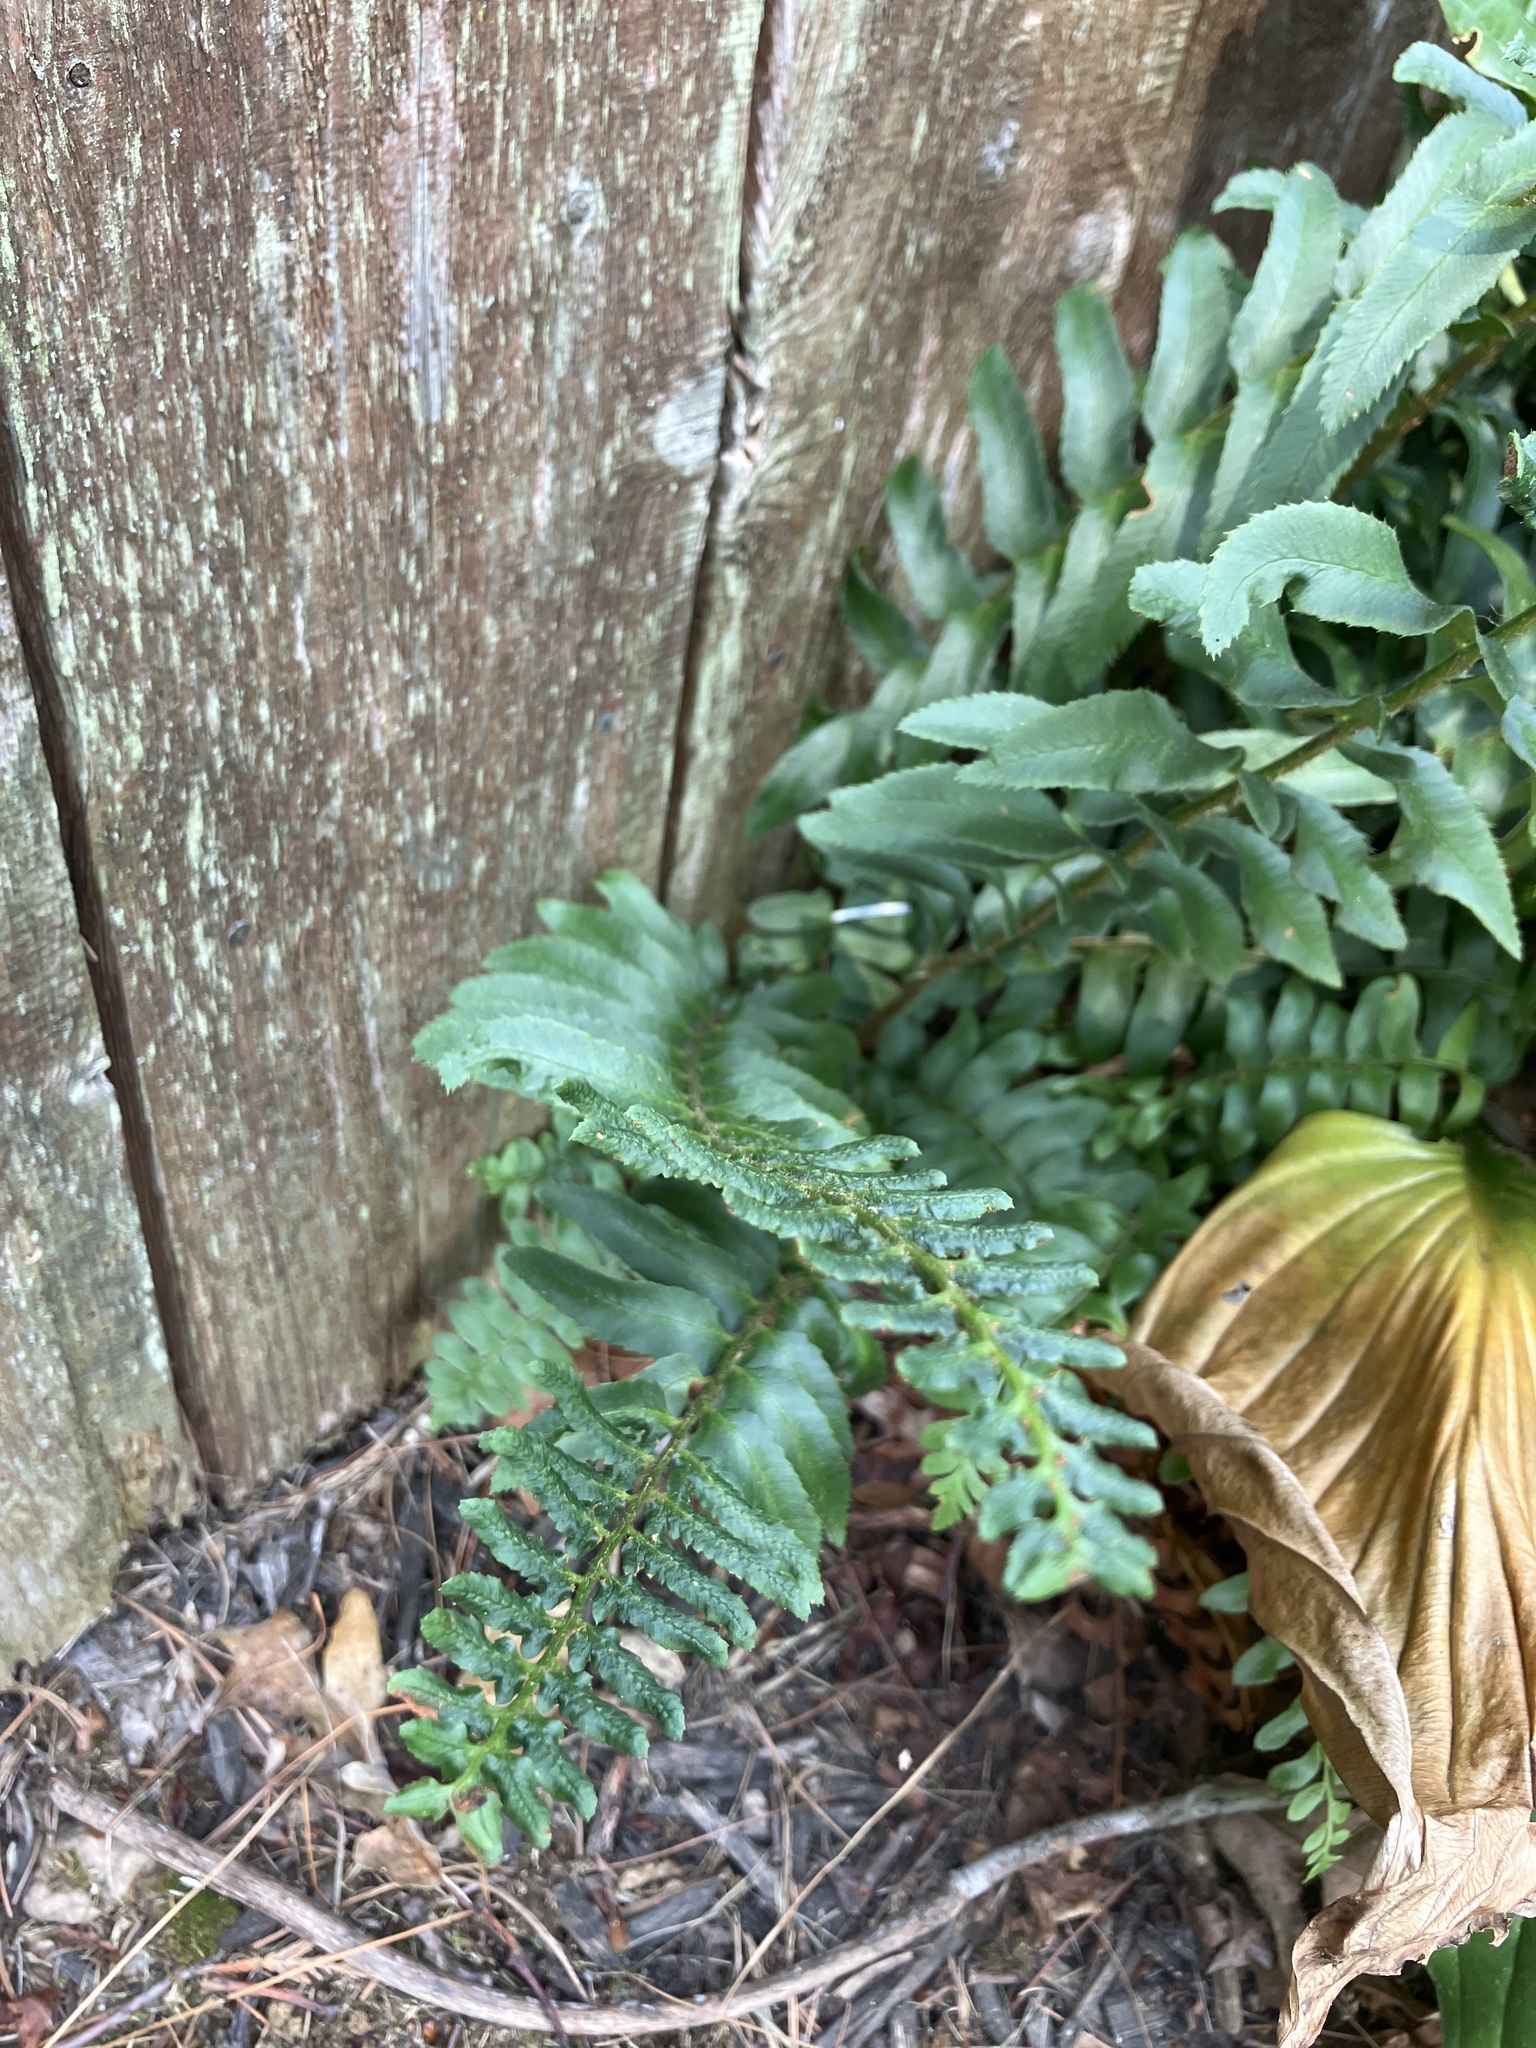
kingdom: Plantae
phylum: Tracheophyta
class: Polypodiopsida
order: Polypodiales
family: Dryopteridaceae
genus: Polystichum
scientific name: Polystichum acrostichoides
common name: Christmas fern
